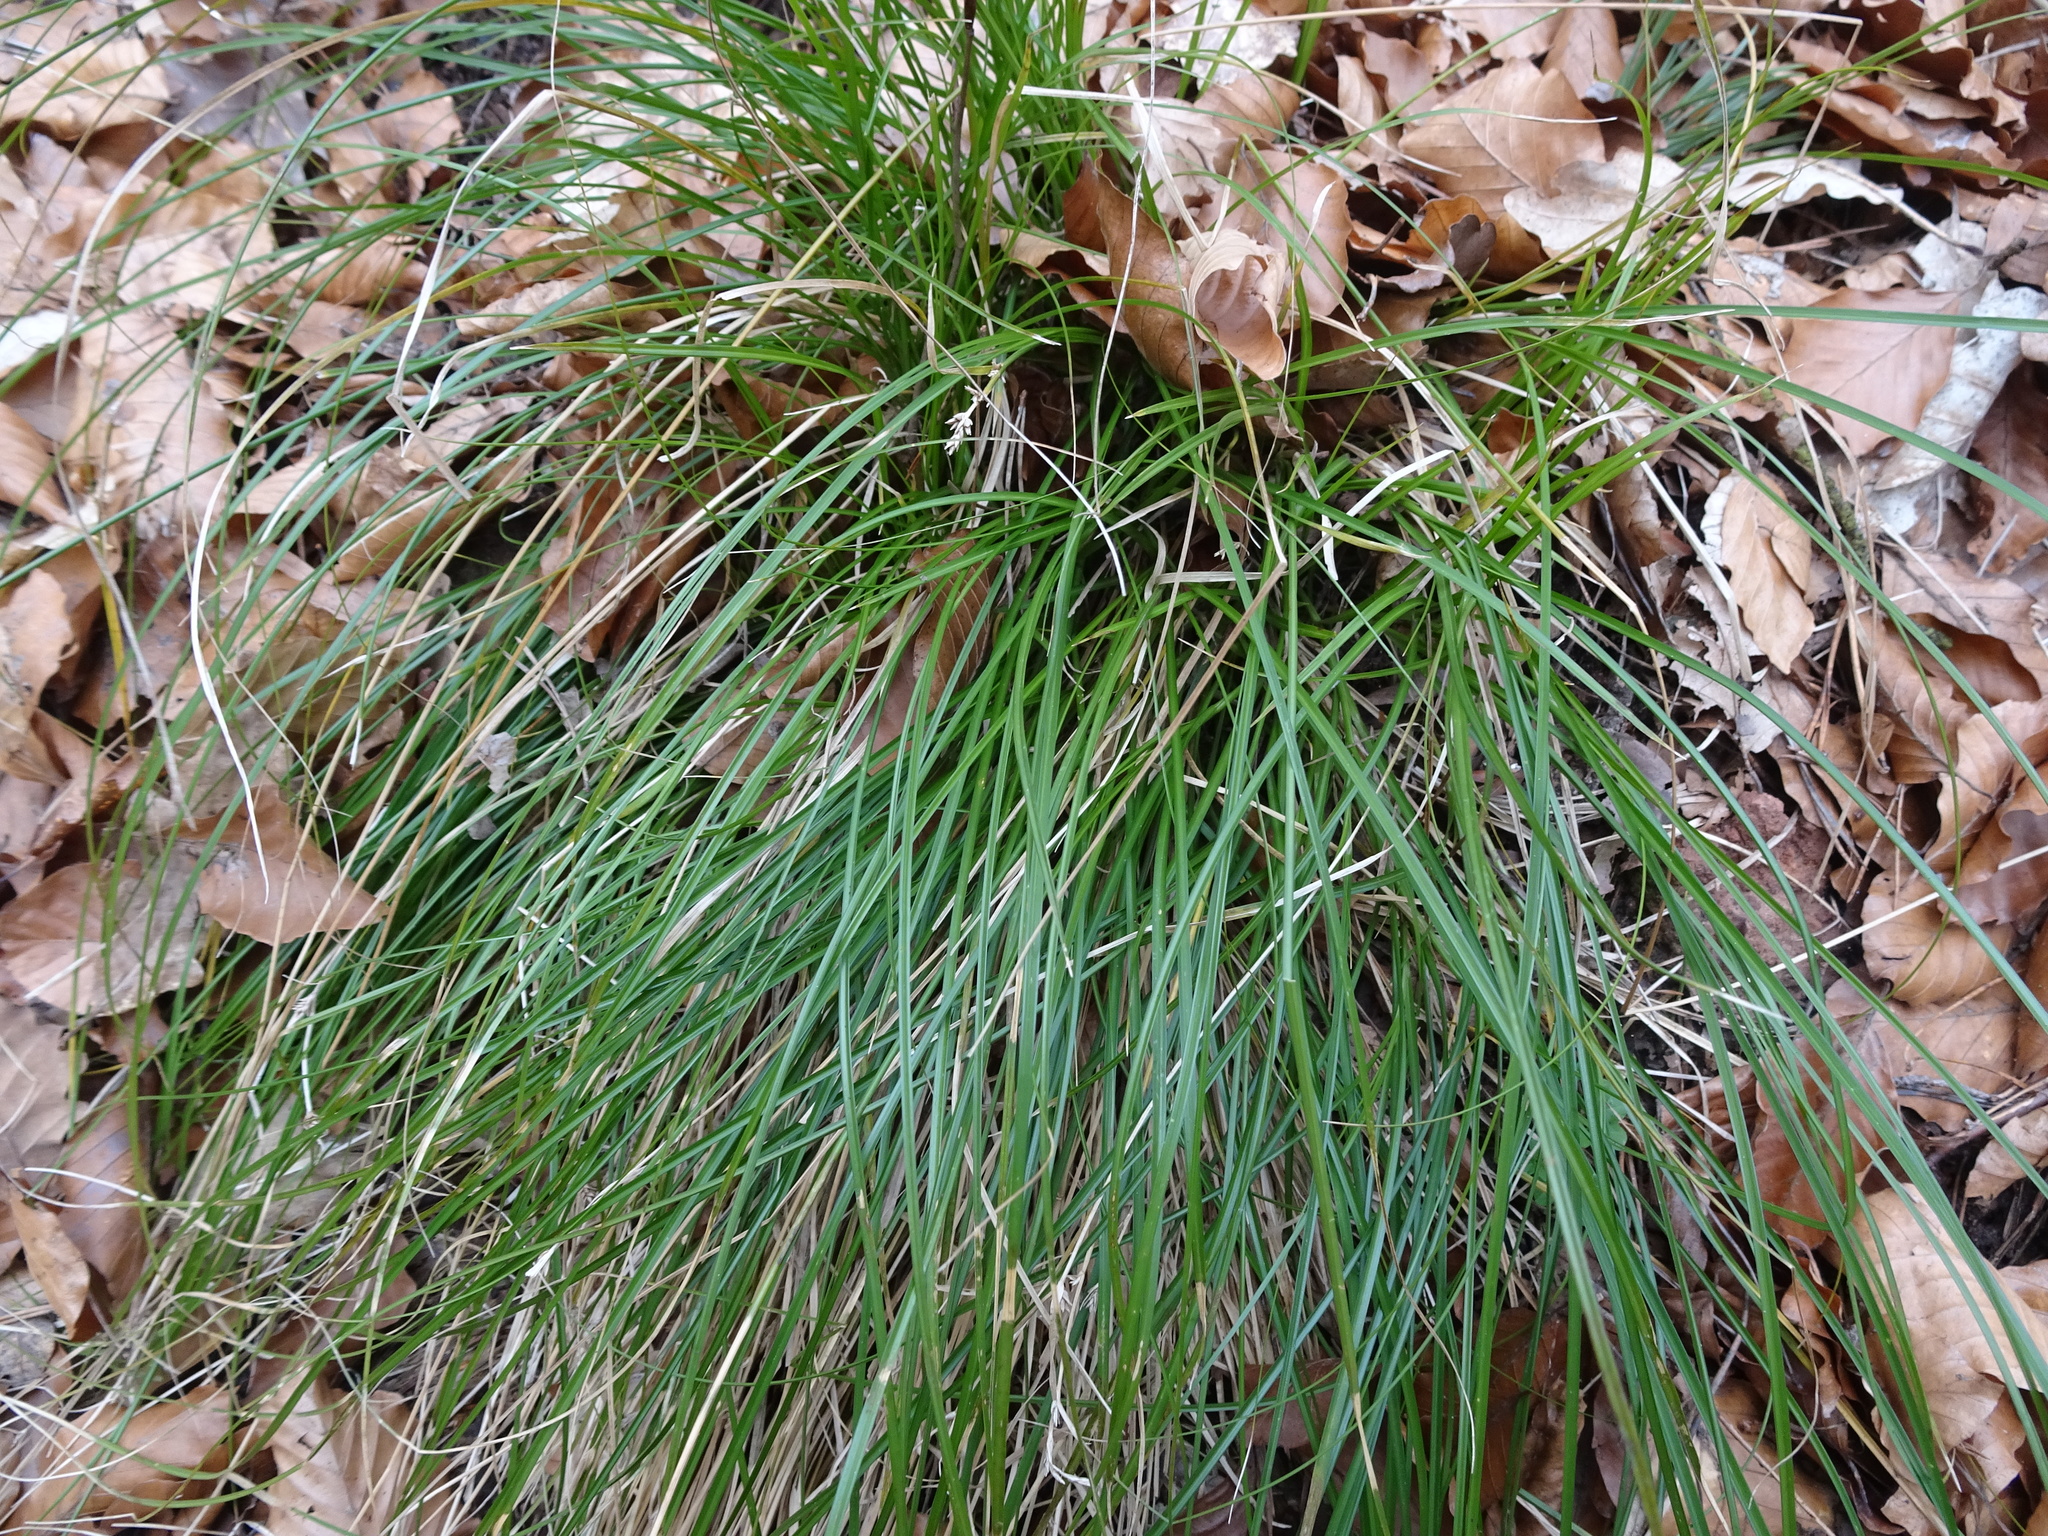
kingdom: Plantae
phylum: Tracheophyta
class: Liliopsida
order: Poales
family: Cyperaceae
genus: Carex
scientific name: Carex remota
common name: Remote sedge
